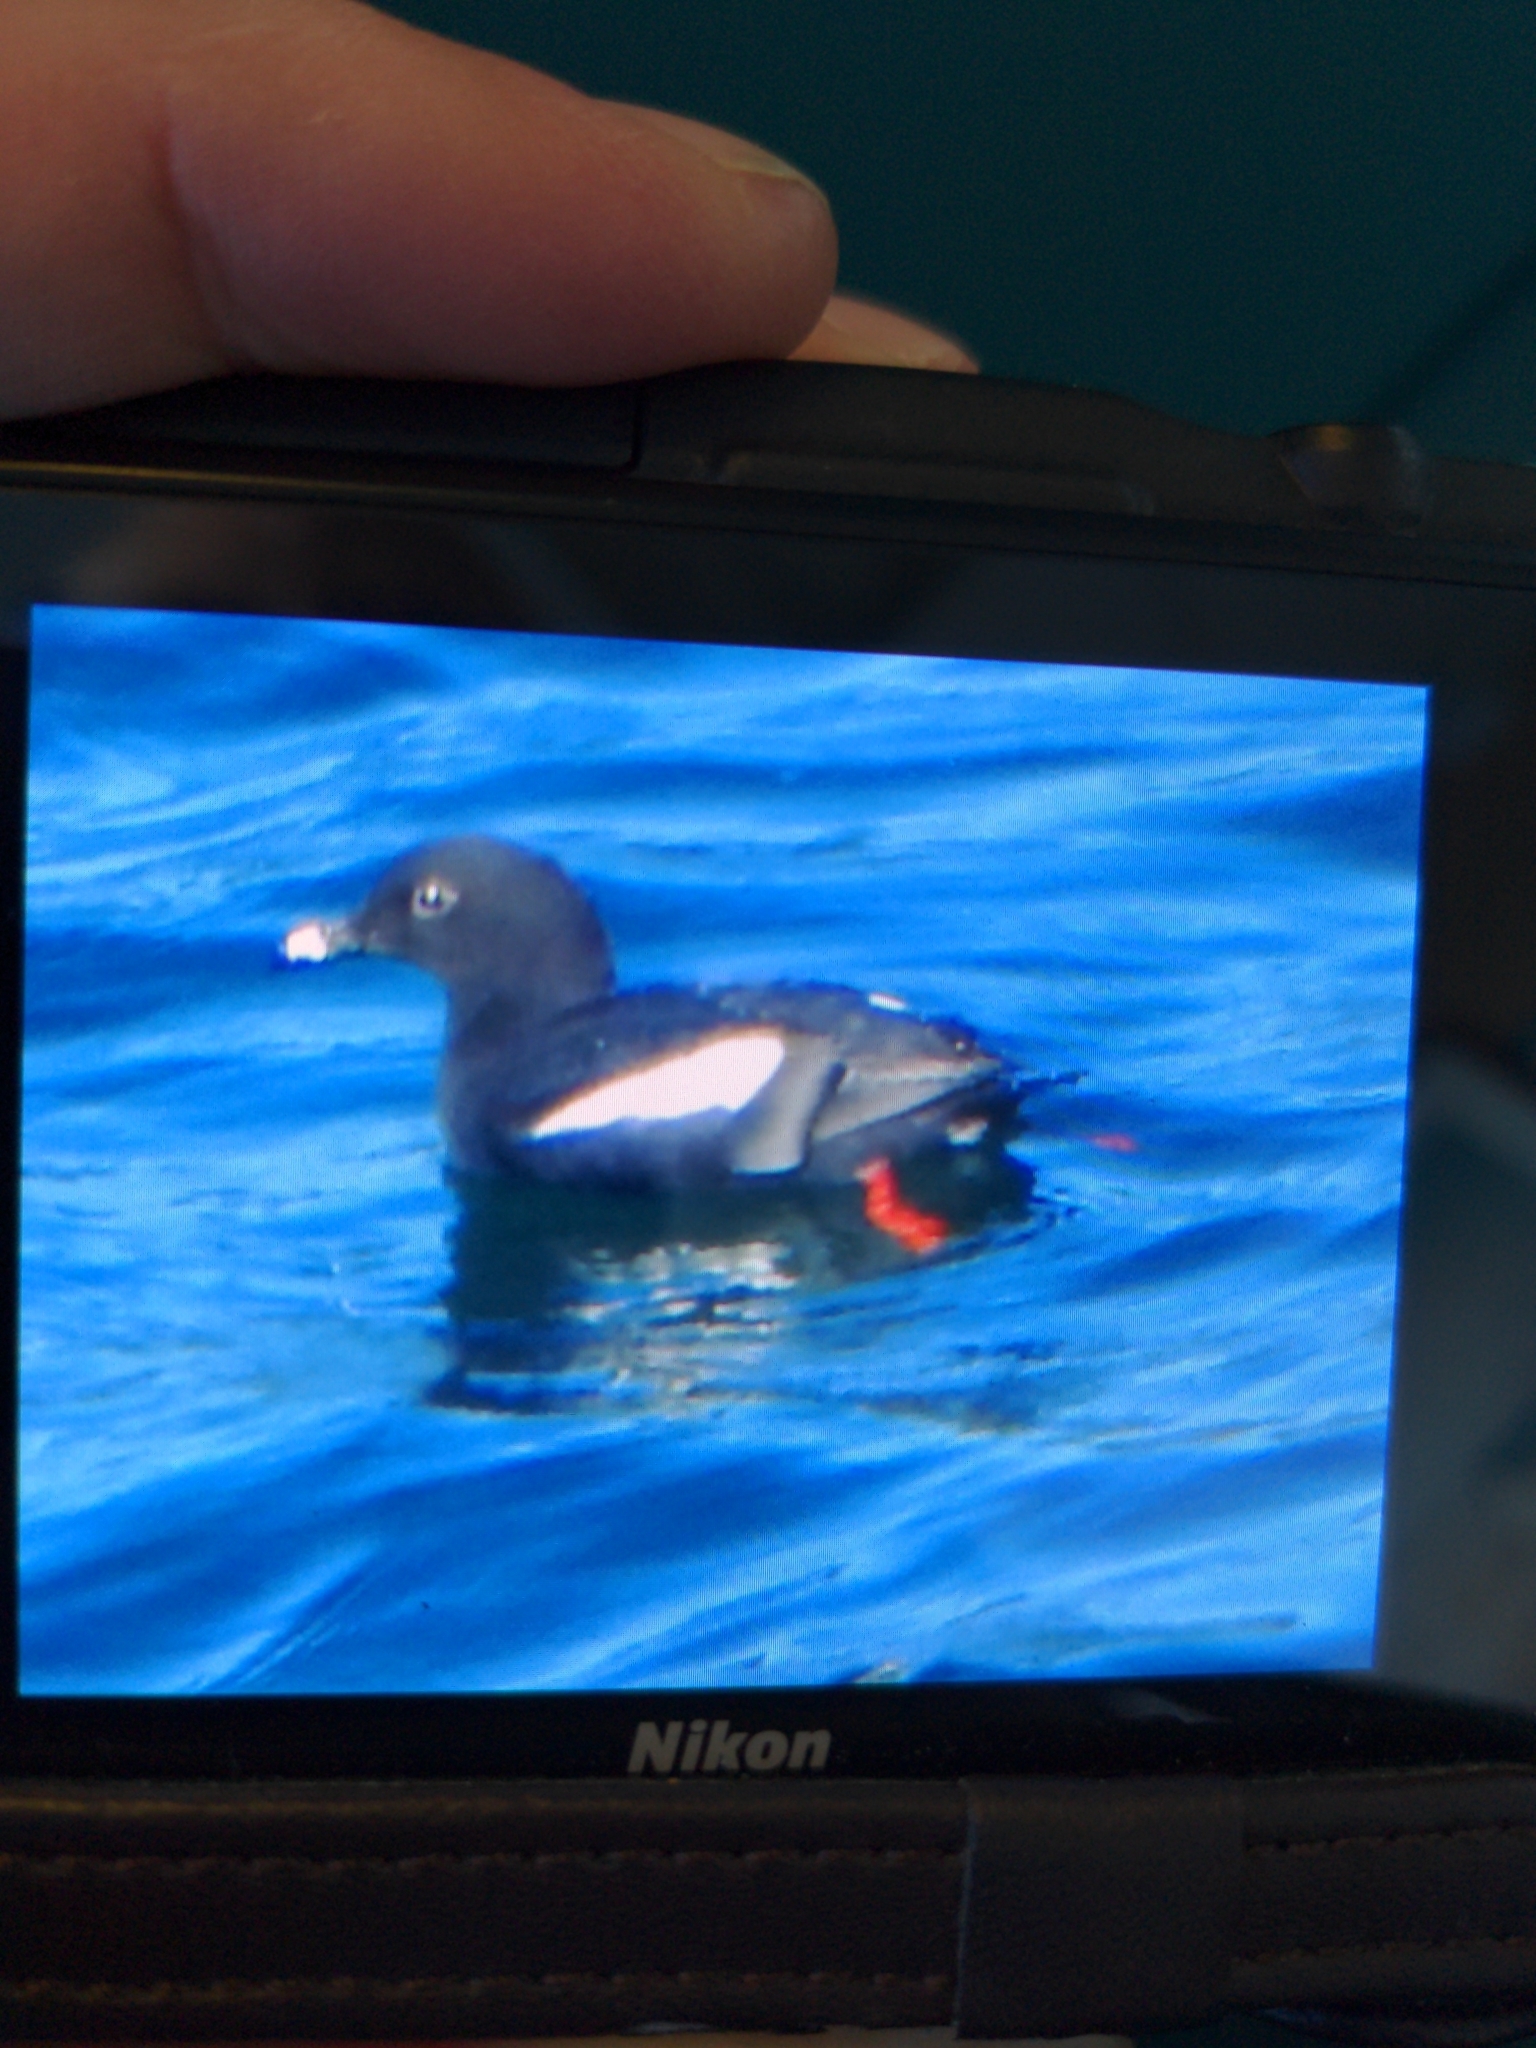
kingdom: Animalia
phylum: Chordata
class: Aves
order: Charadriiformes
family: Alcidae
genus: Cepphus
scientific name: Cepphus columba
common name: Pigeon guillemot
